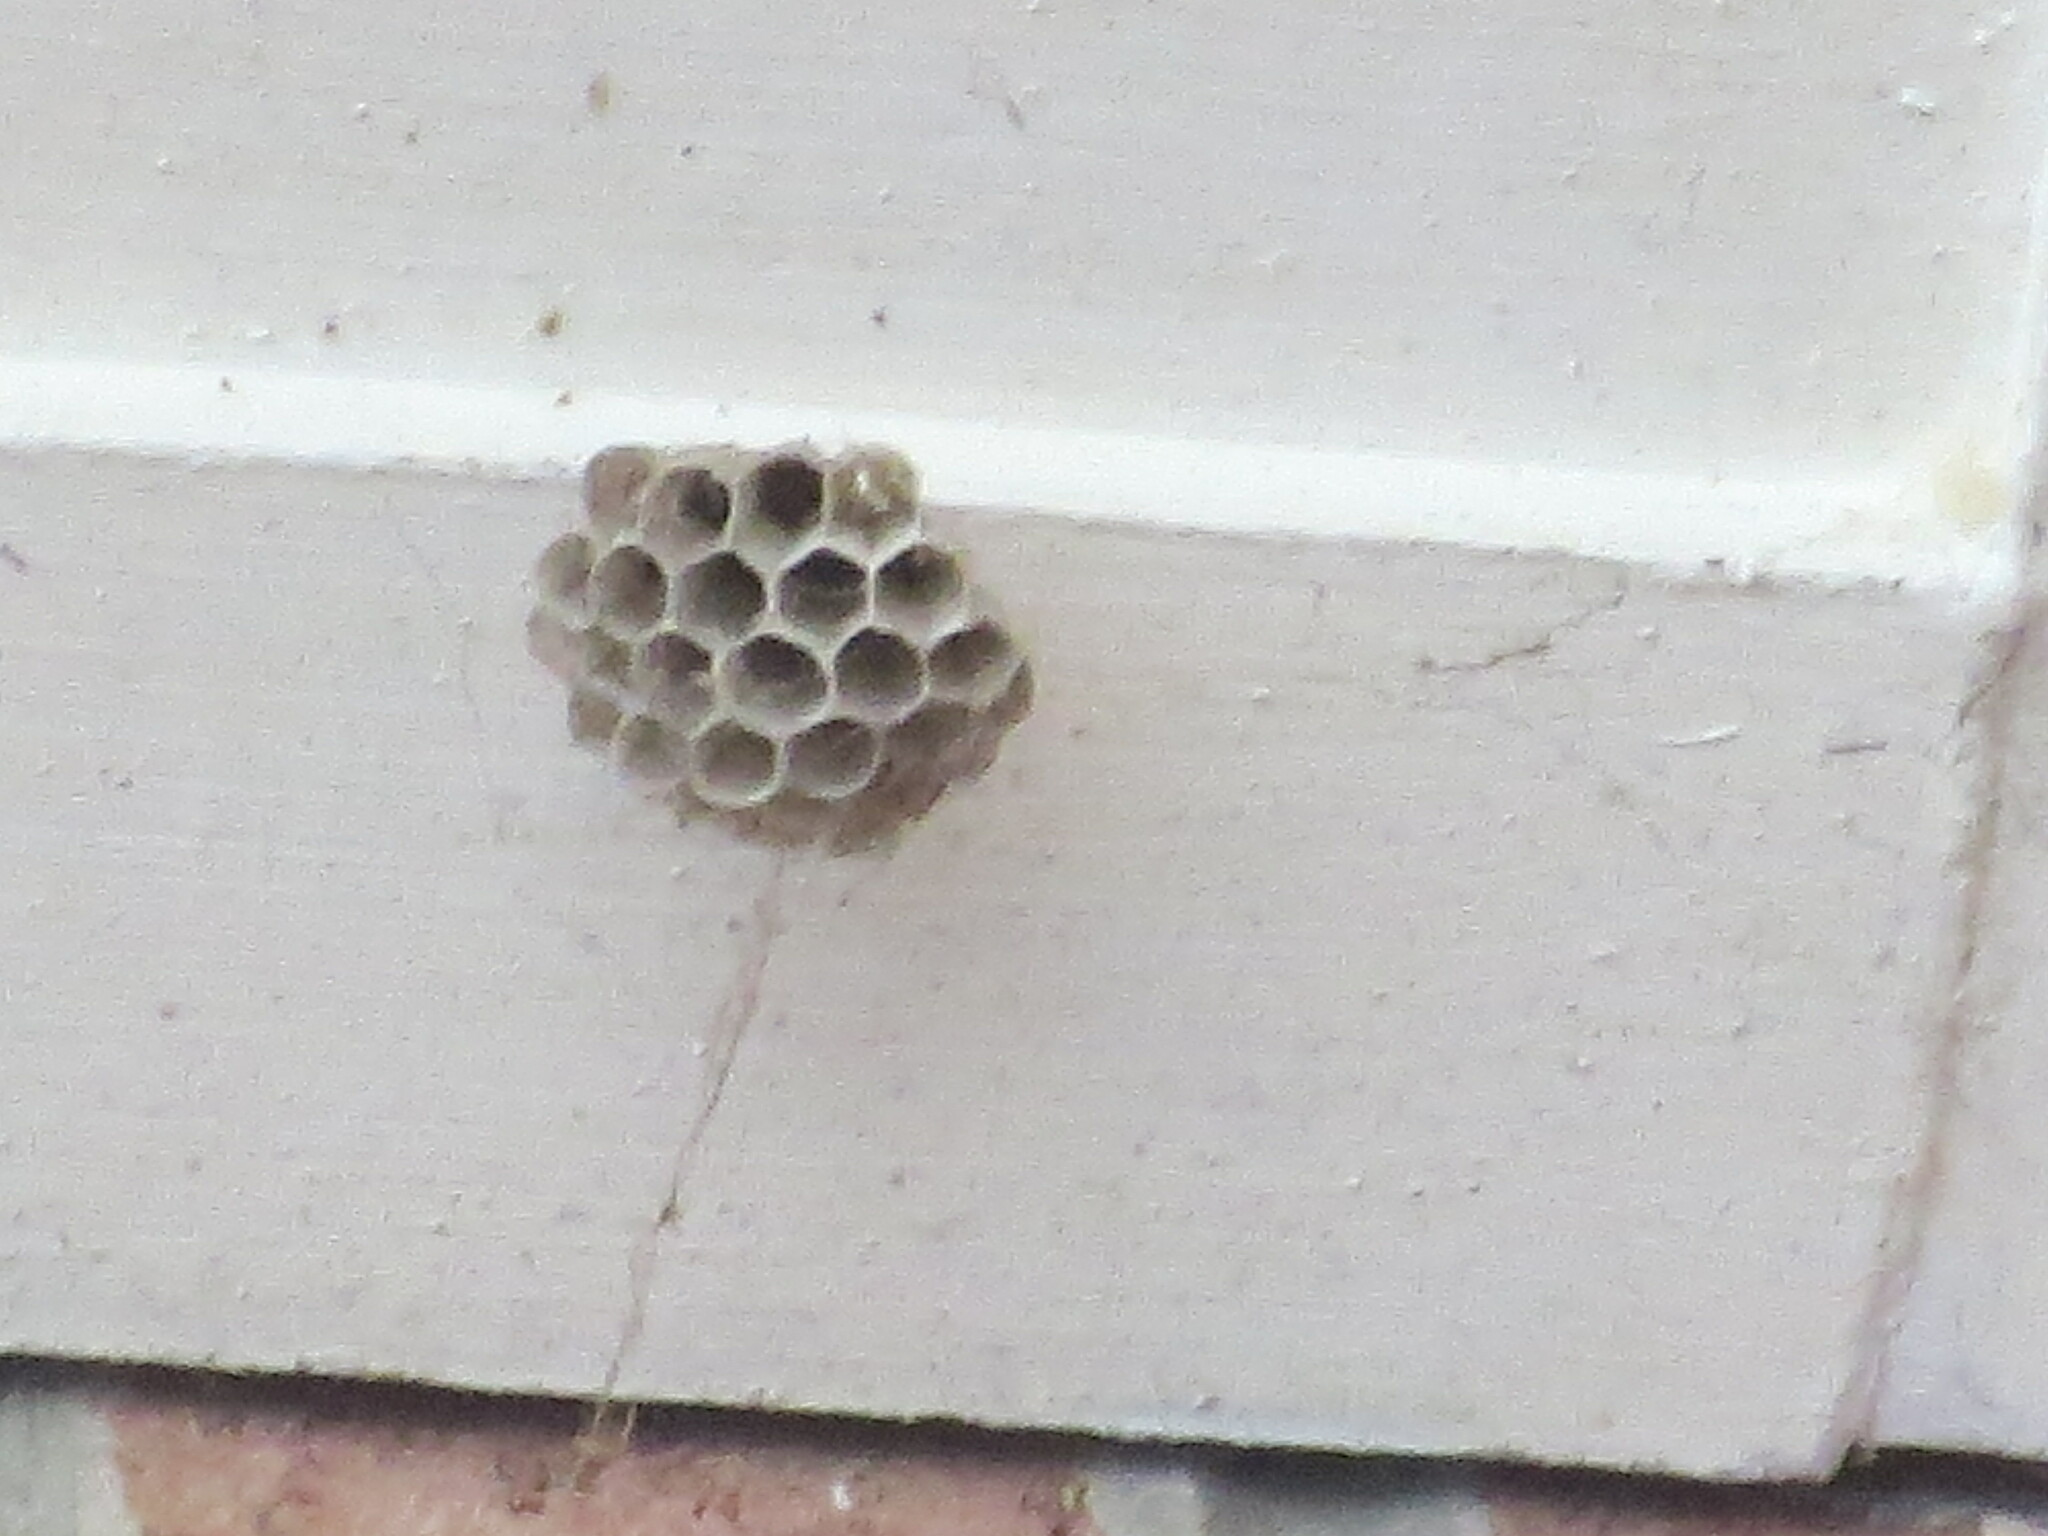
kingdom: Animalia
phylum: Arthropoda
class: Insecta
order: Hymenoptera
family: Eumenidae
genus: Polistes
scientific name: Polistes
